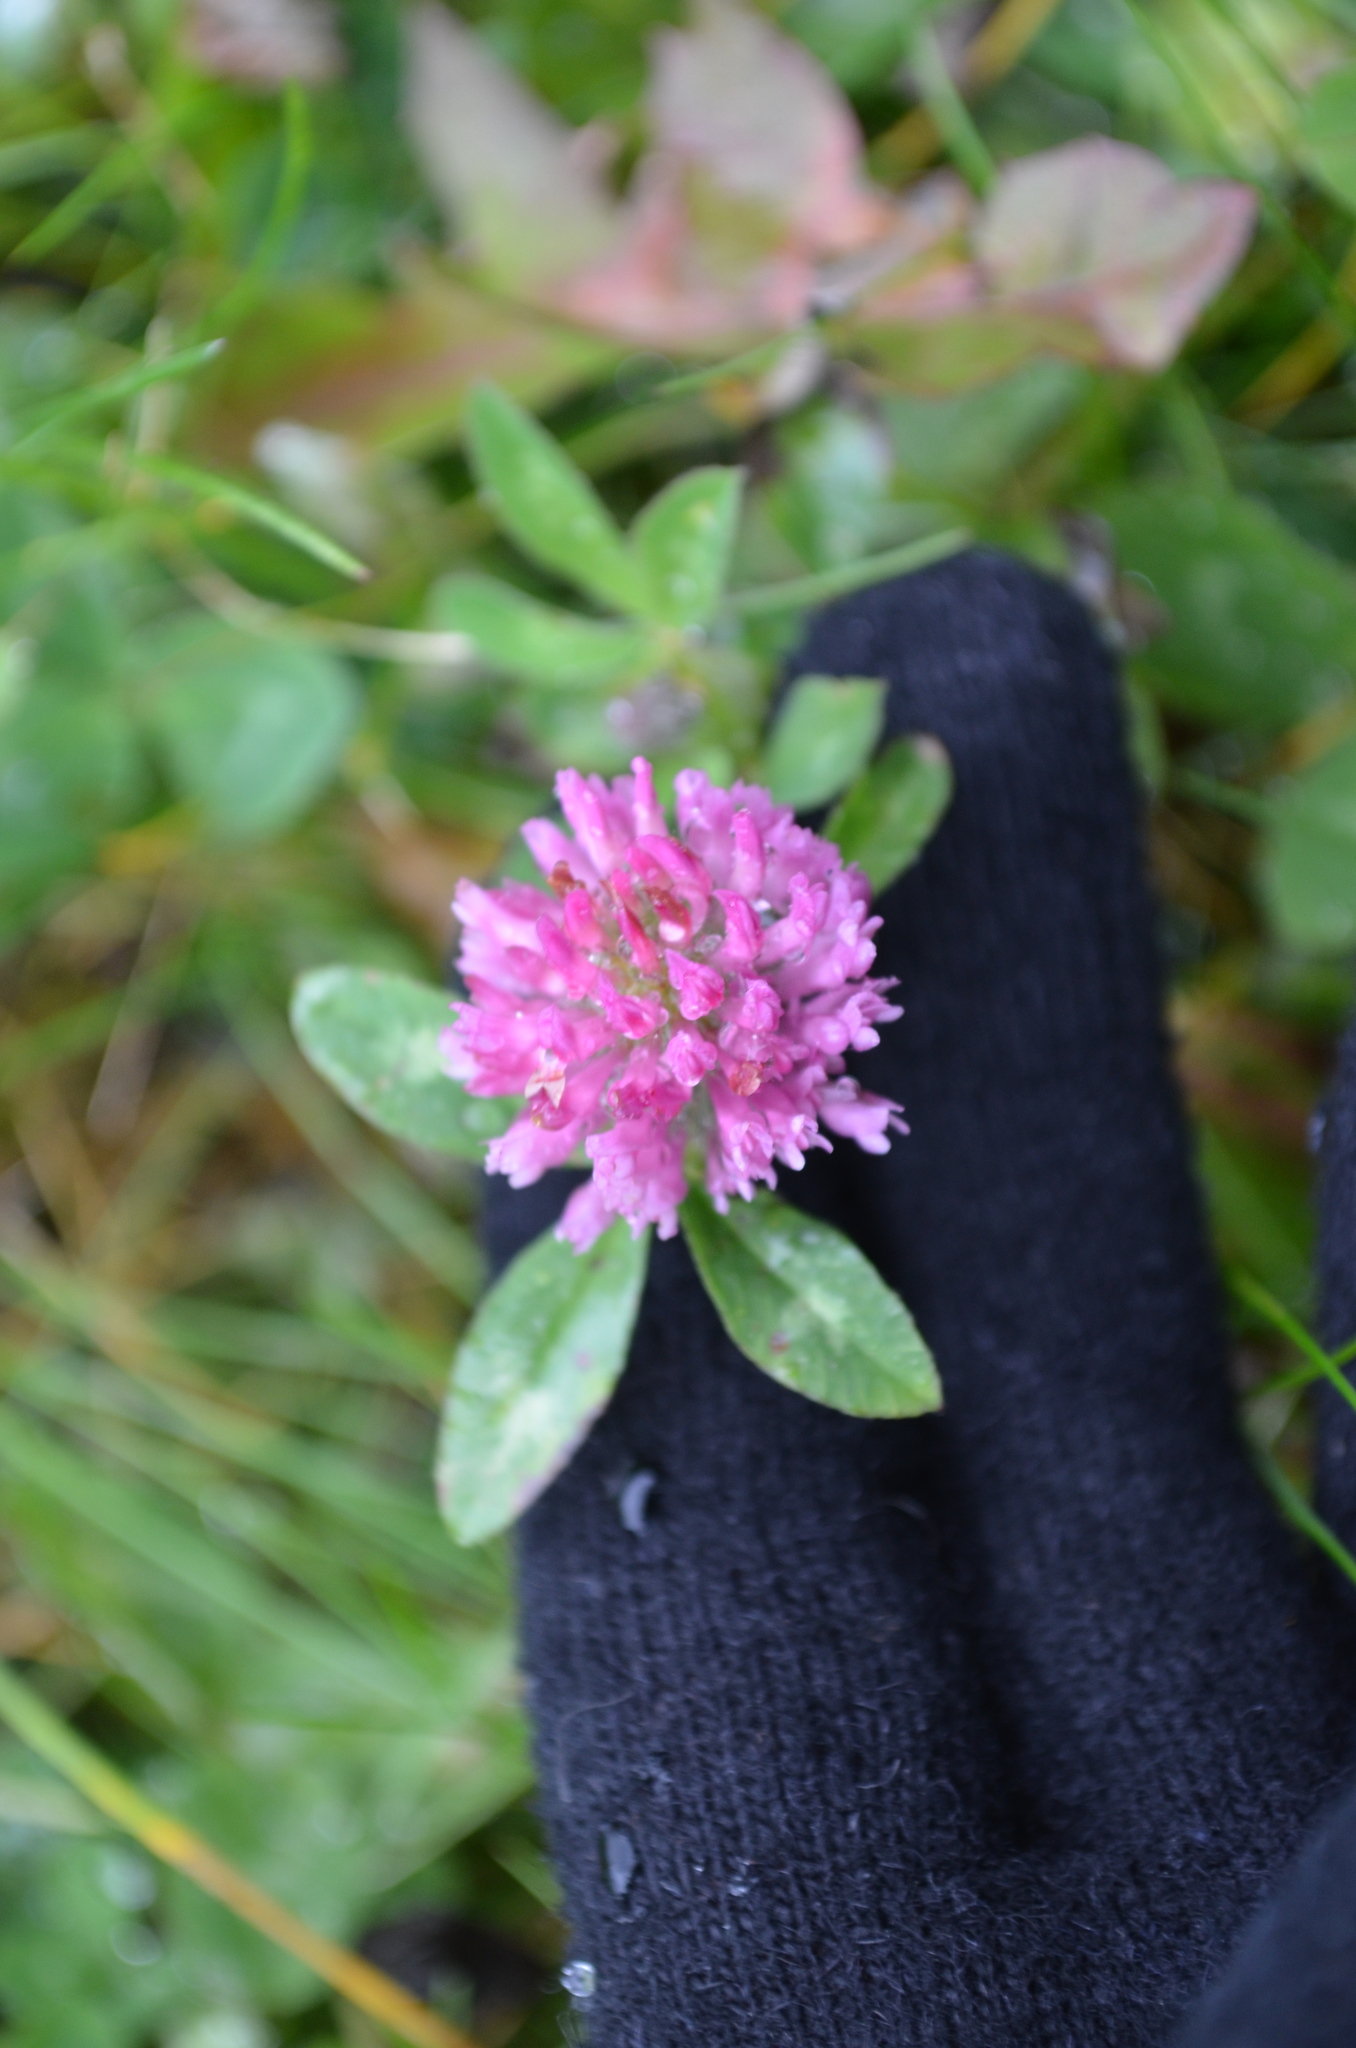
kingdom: Plantae
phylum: Tracheophyta
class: Magnoliopsida
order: Fabales
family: Fabaceae
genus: Trifolium
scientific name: Trifolium pratense
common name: Red clover
